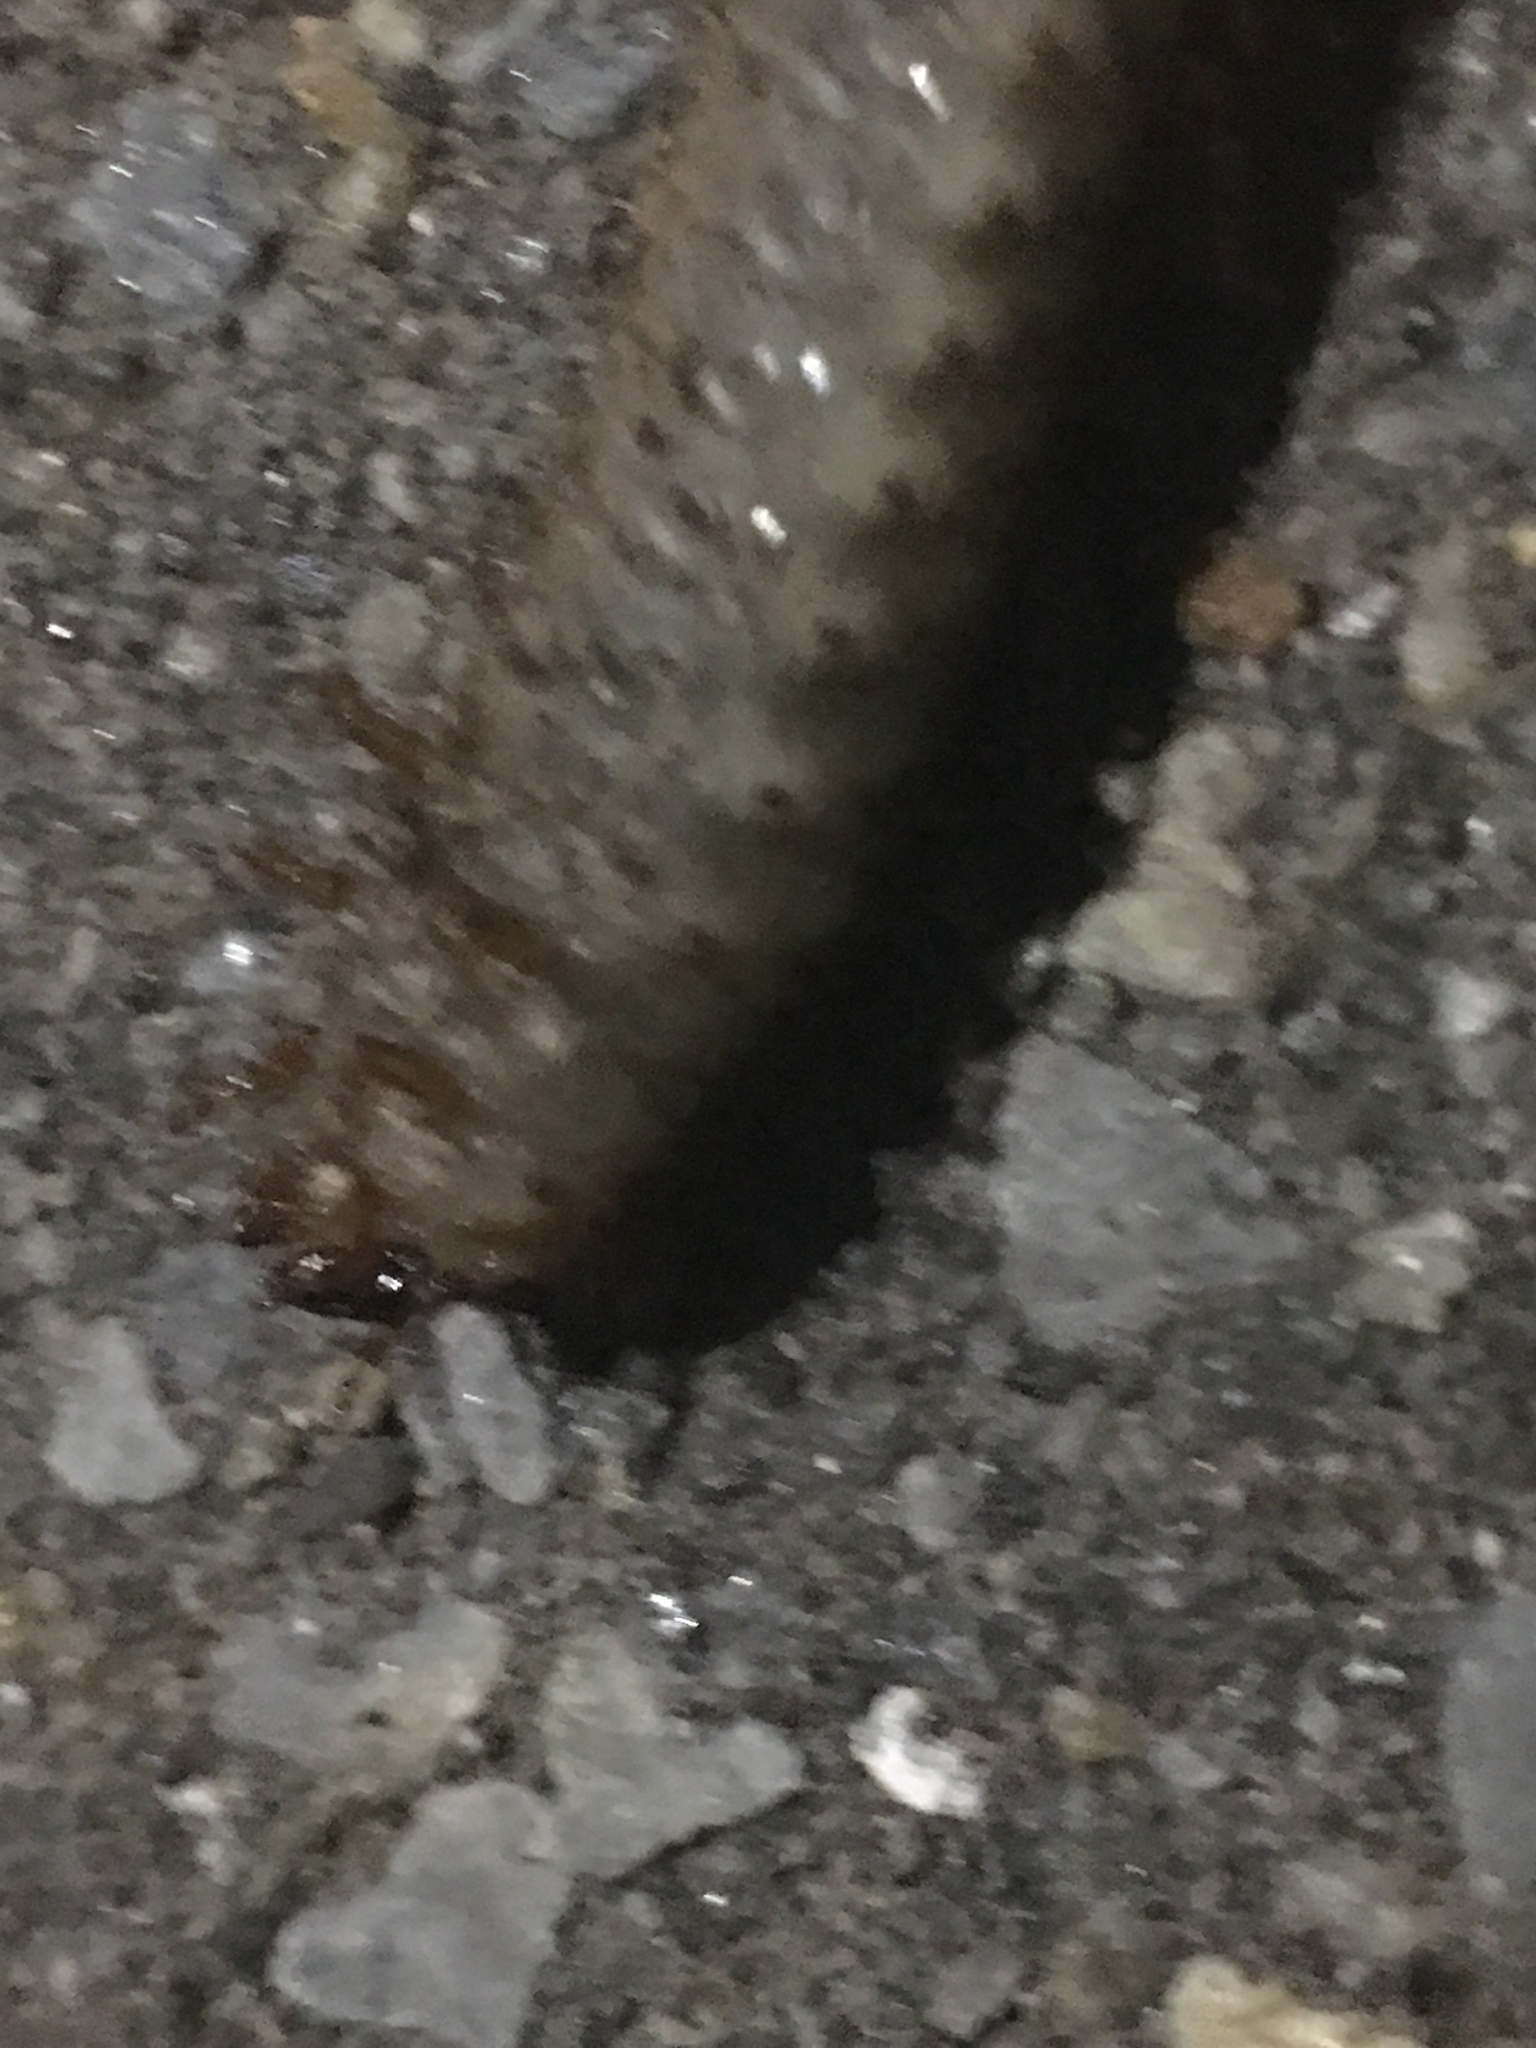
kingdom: Animalia
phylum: Arthropoda
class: Insecta
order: Coleoptera
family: Scarabaeidae
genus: Cotinis
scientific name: Cotinis nitida
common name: Common green june beetle
